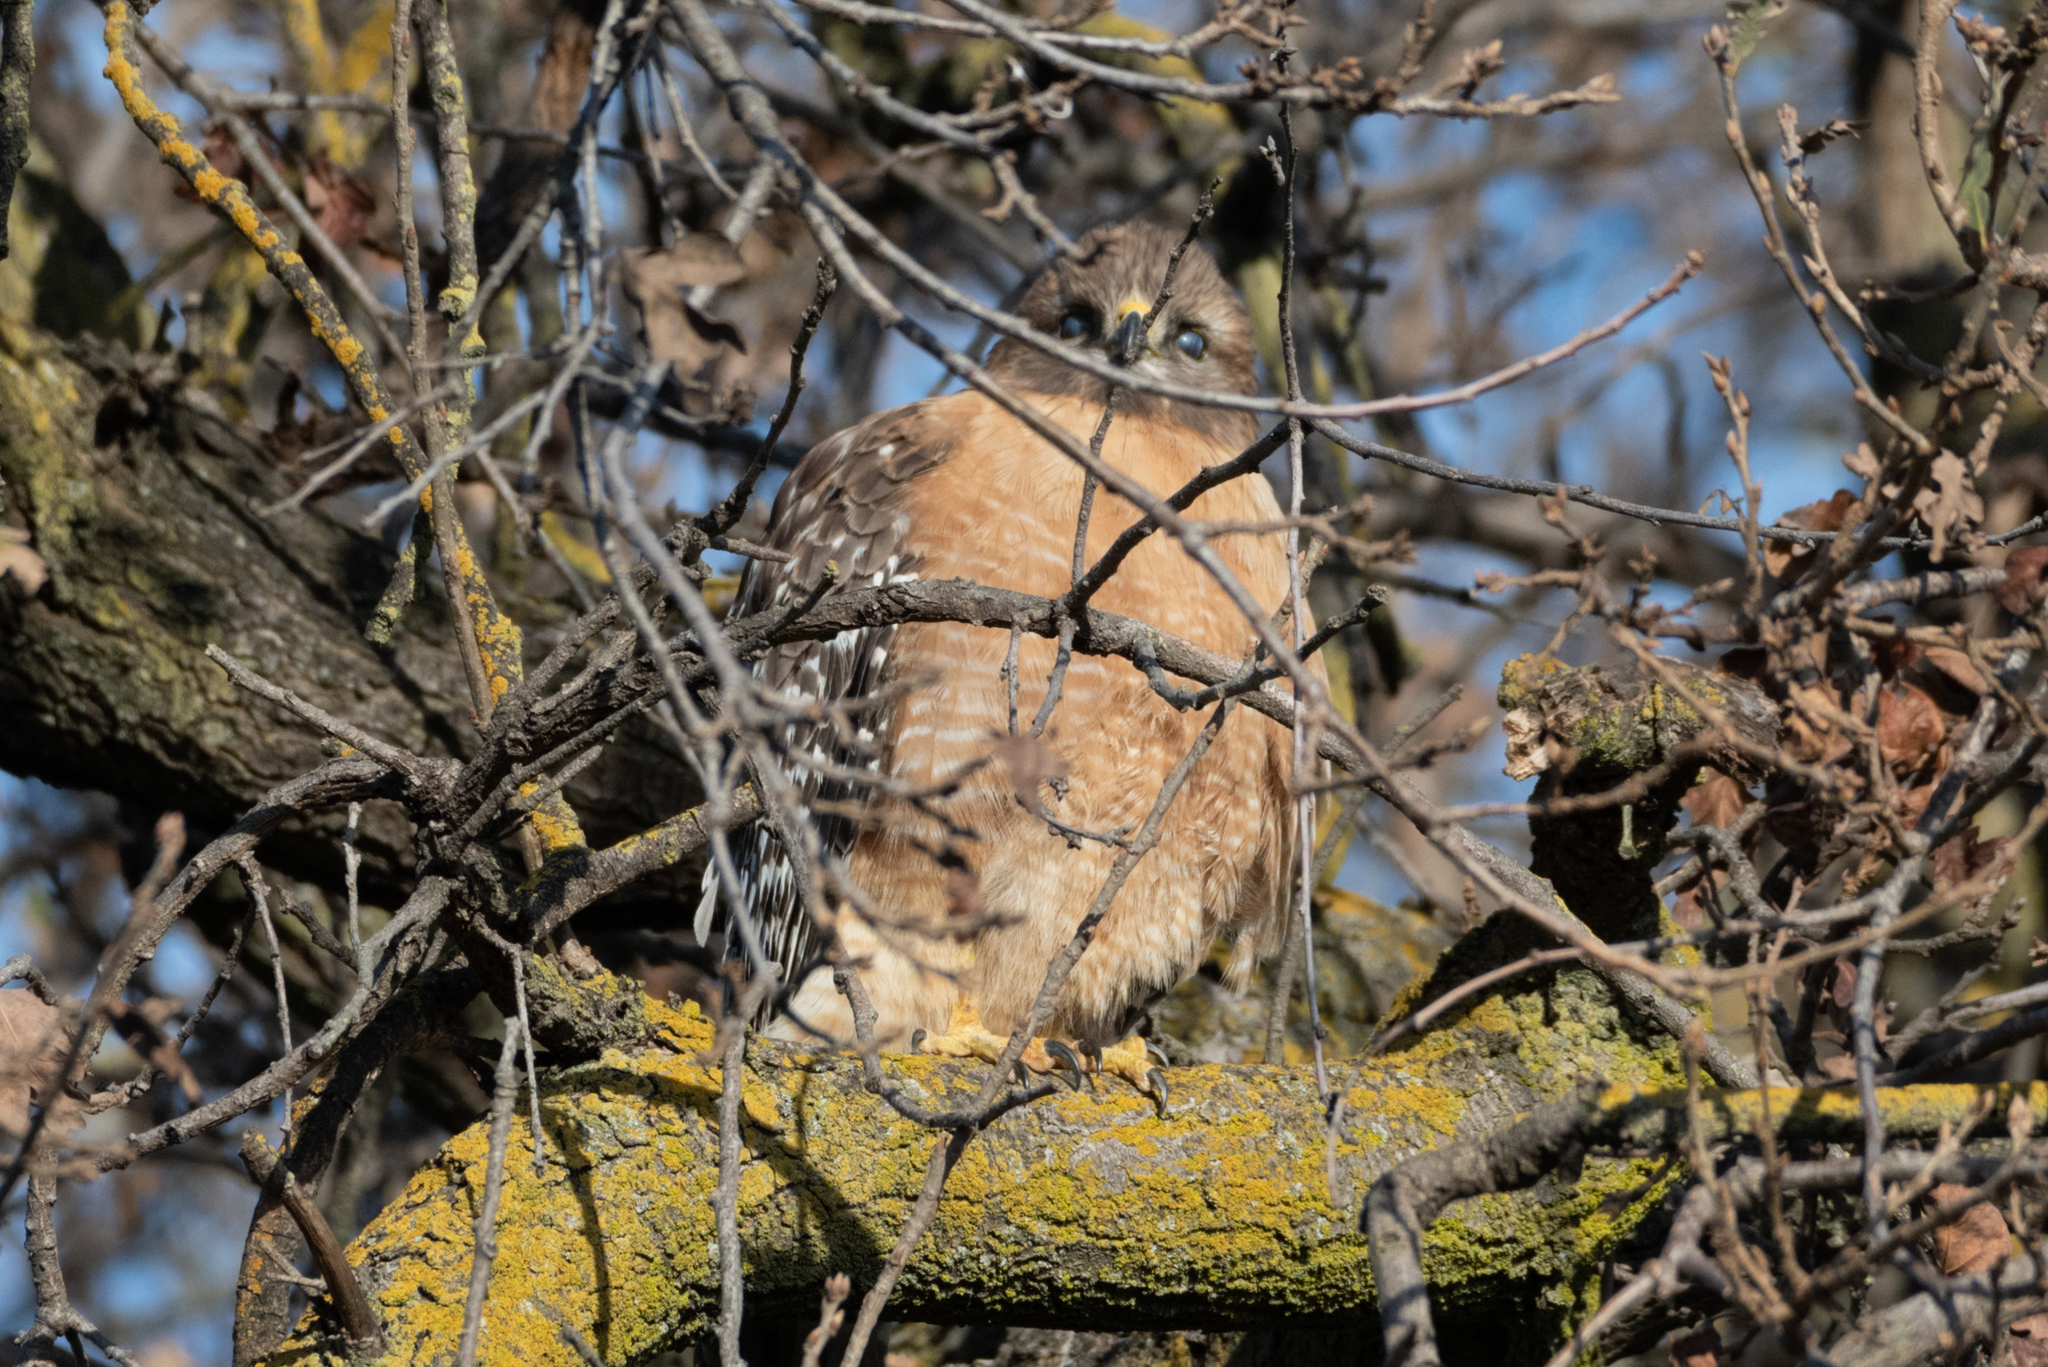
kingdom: Animalia
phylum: Chordata
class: Aves
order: Accipitriformes
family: Accipitridae
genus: Buteo
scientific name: Buteo lineatus
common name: Red-shouldered hawk
